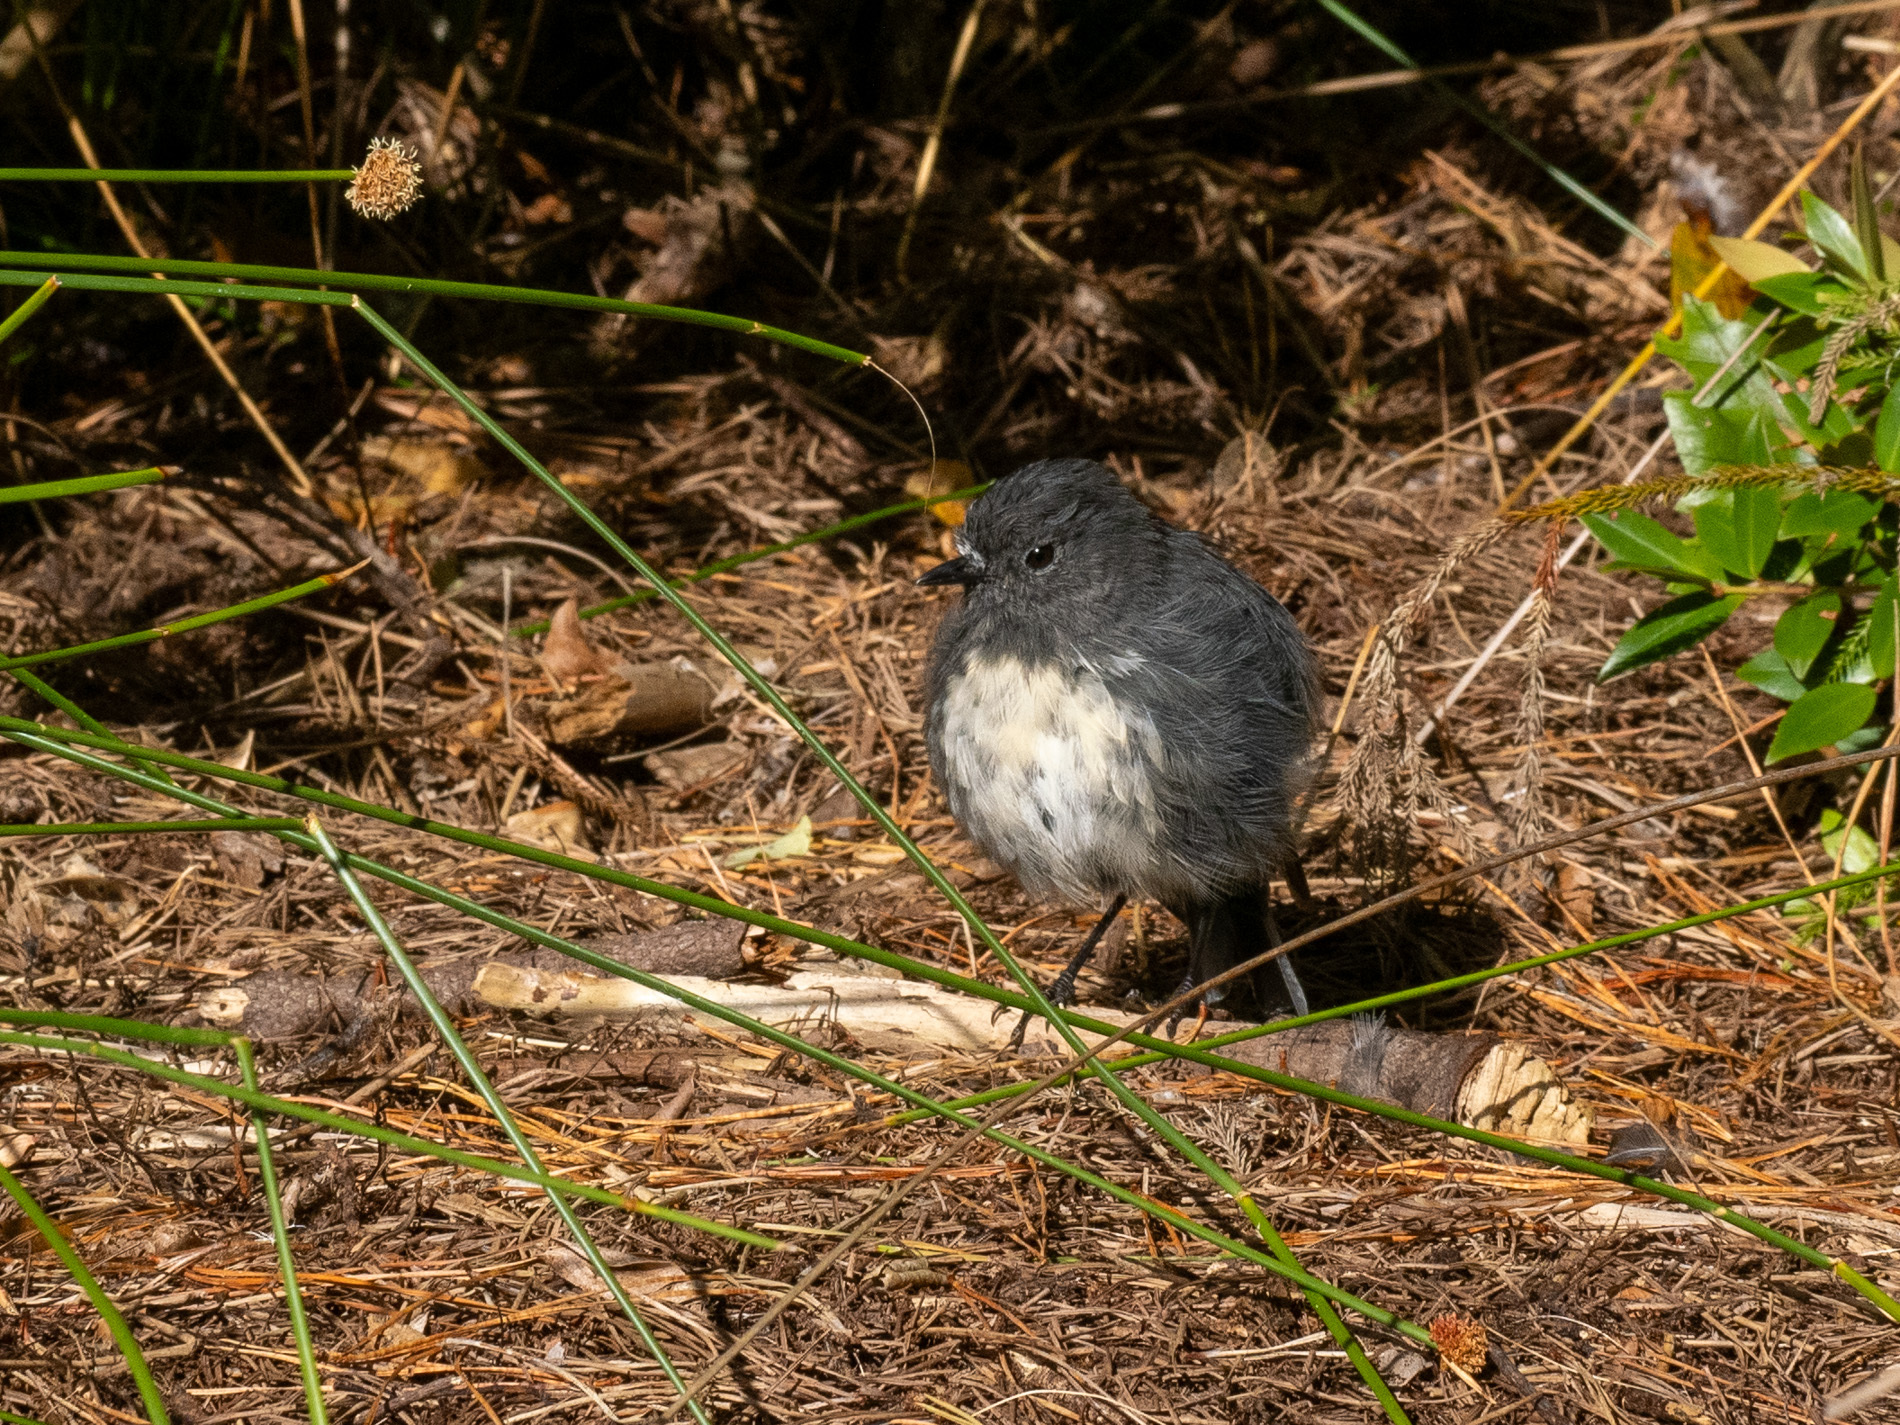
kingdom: Animalia
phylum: Chordata
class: Aves
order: Passeriformes
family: Petroicidae
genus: Petroica
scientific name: Petroica australis
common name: New zealand robin
